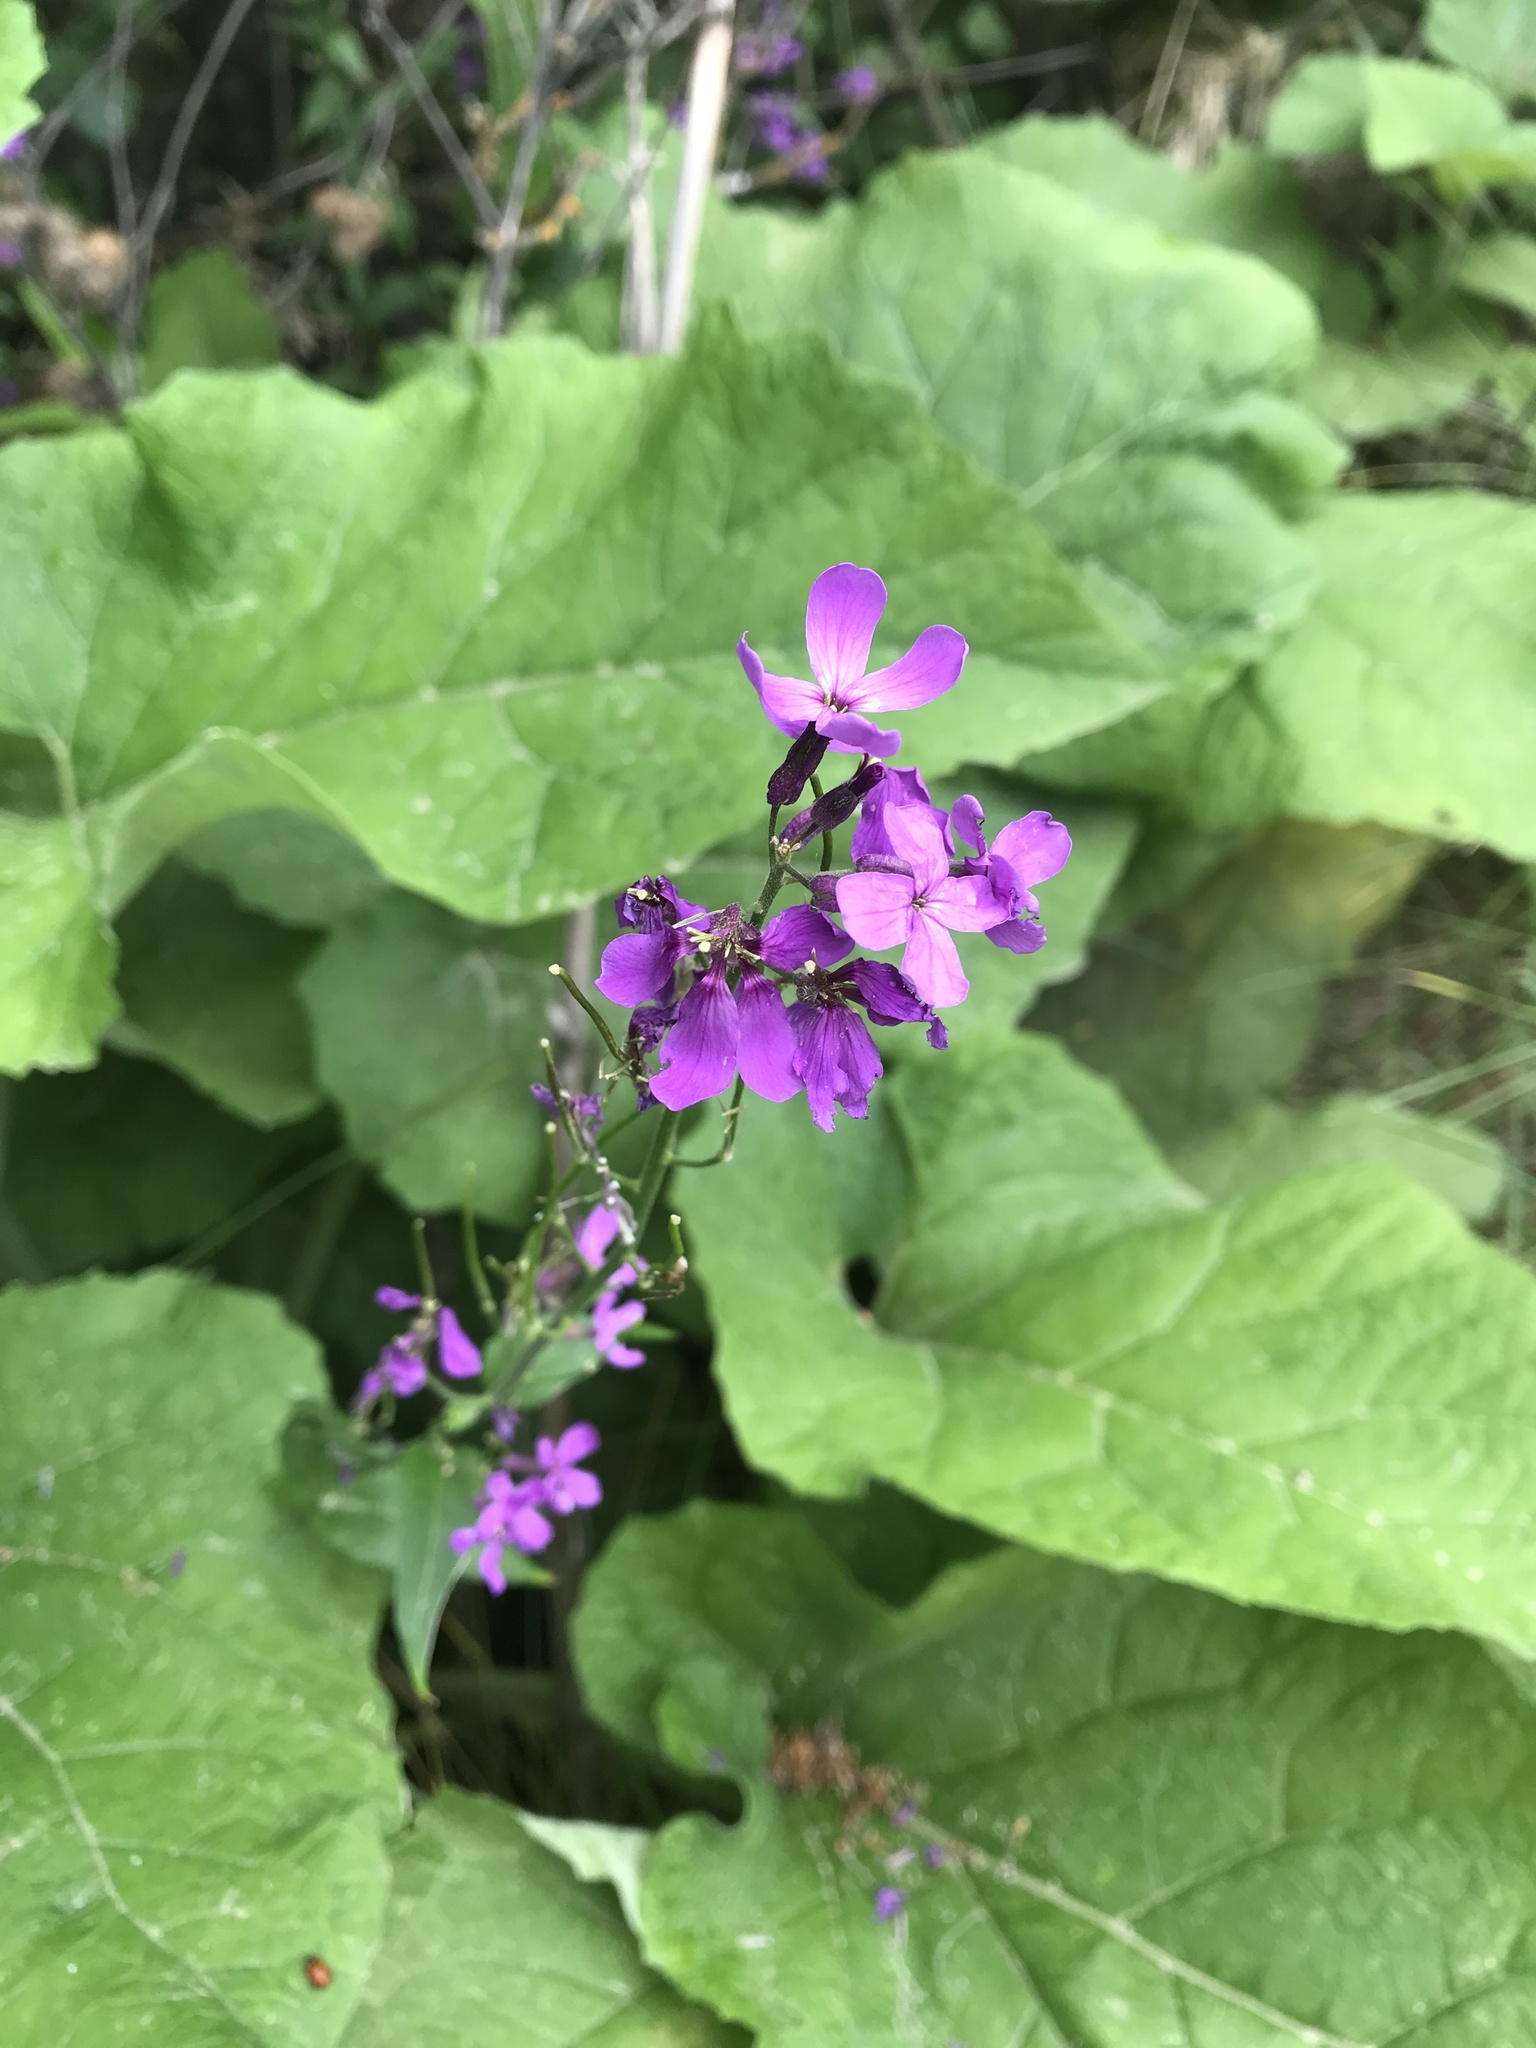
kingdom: Plantae
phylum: Tracheophyta
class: Magnoliopsida
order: Brassicales
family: Brassicaceae
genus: Lunaria
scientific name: Lunaria annua
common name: Honesty
